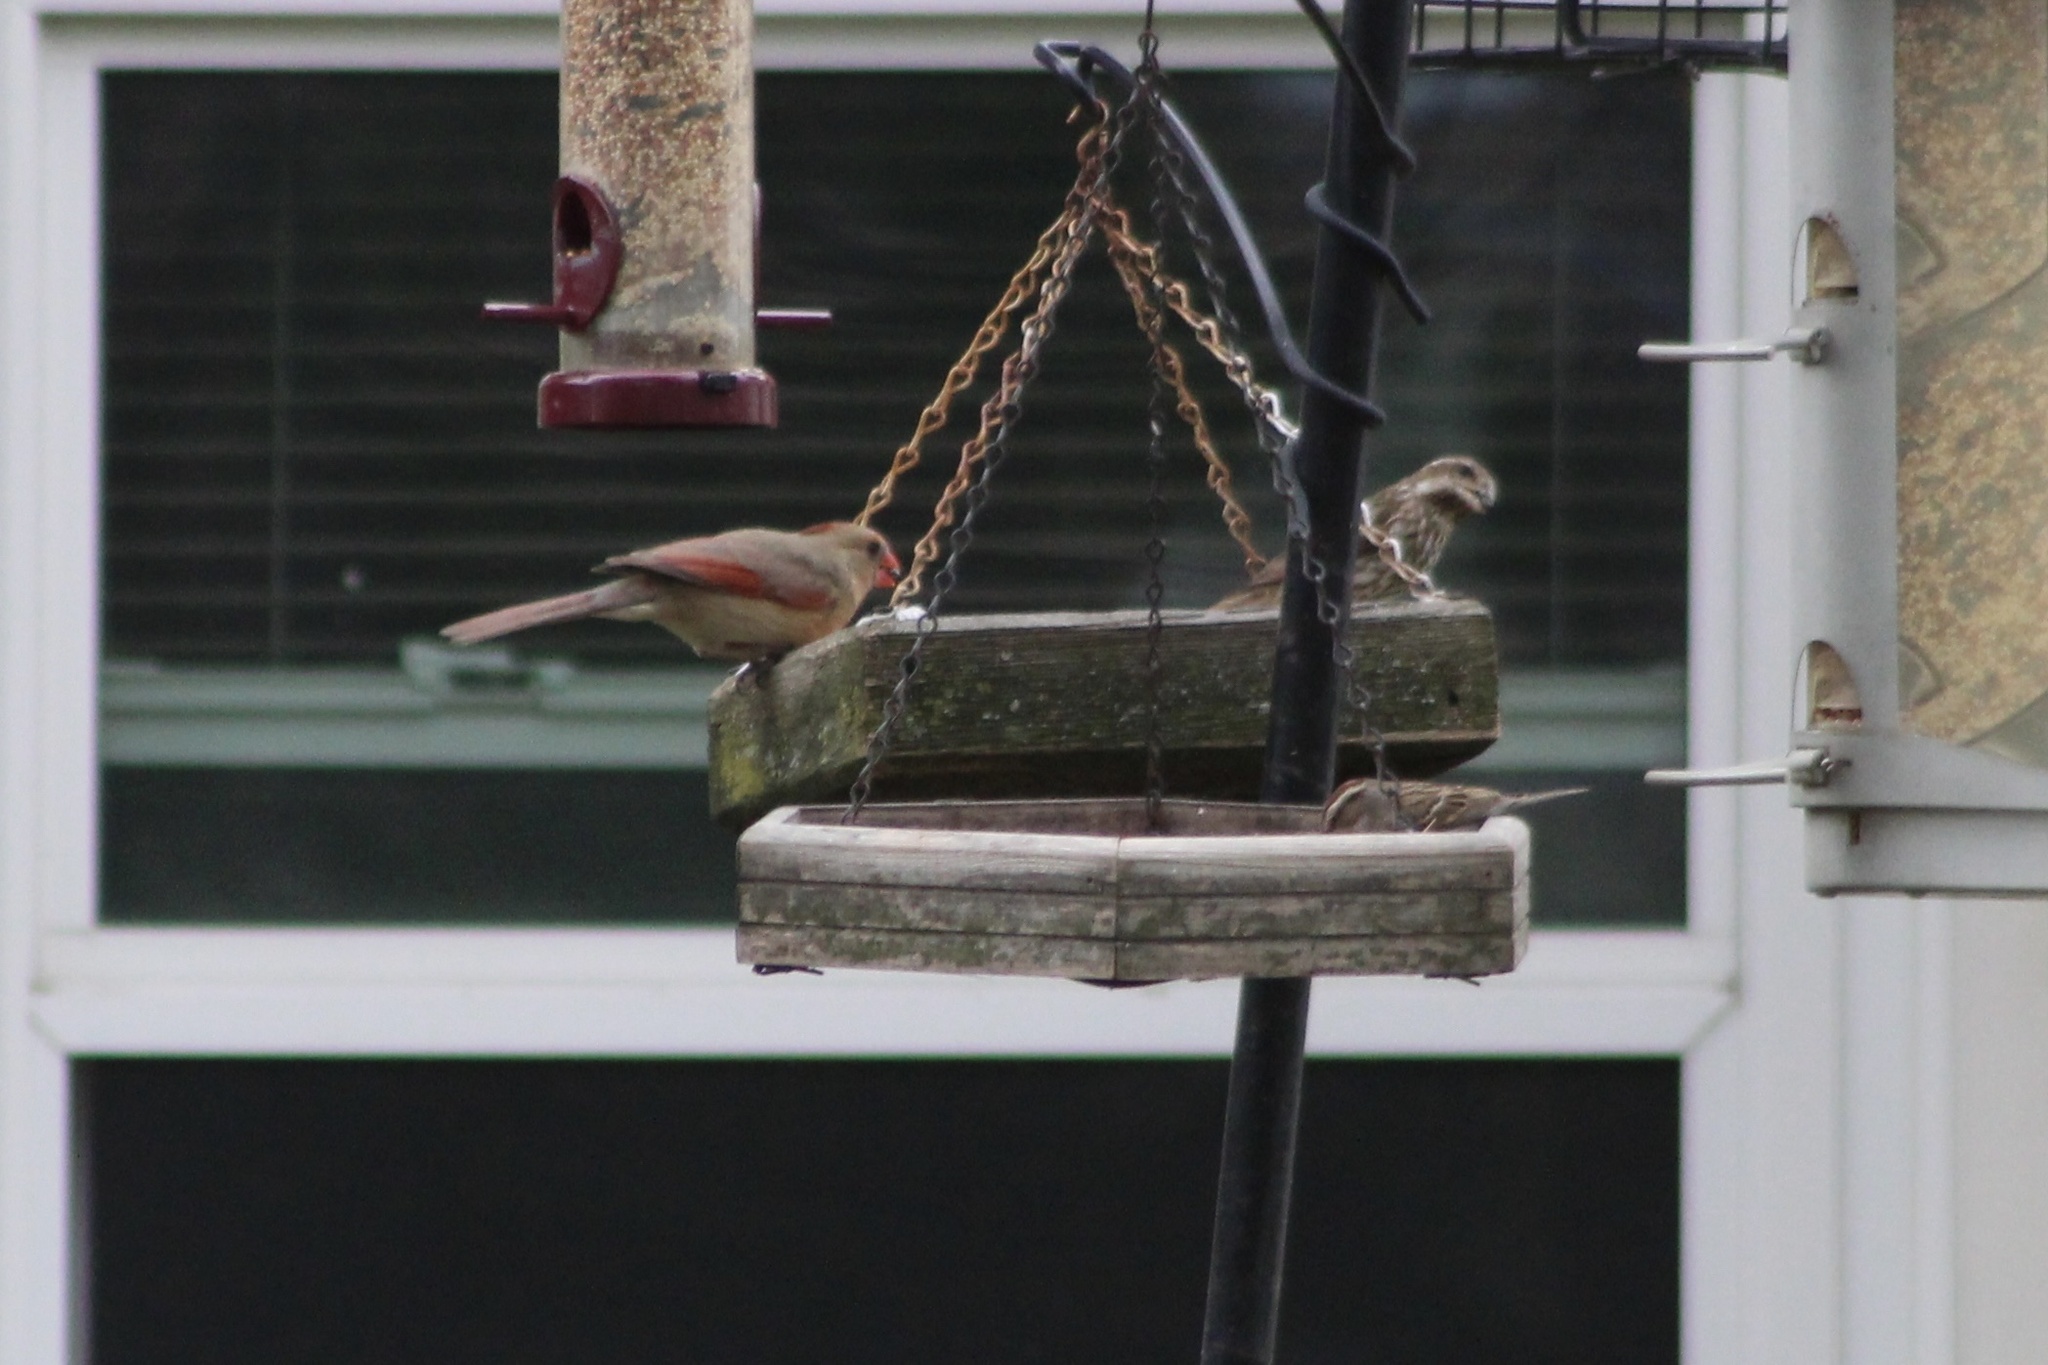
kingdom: Animalia
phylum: Chordata
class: Aves
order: Passeriformes
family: Cardinalidae
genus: Cardinalis
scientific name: Cardinalis cardinalis
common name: Northern cardinal
